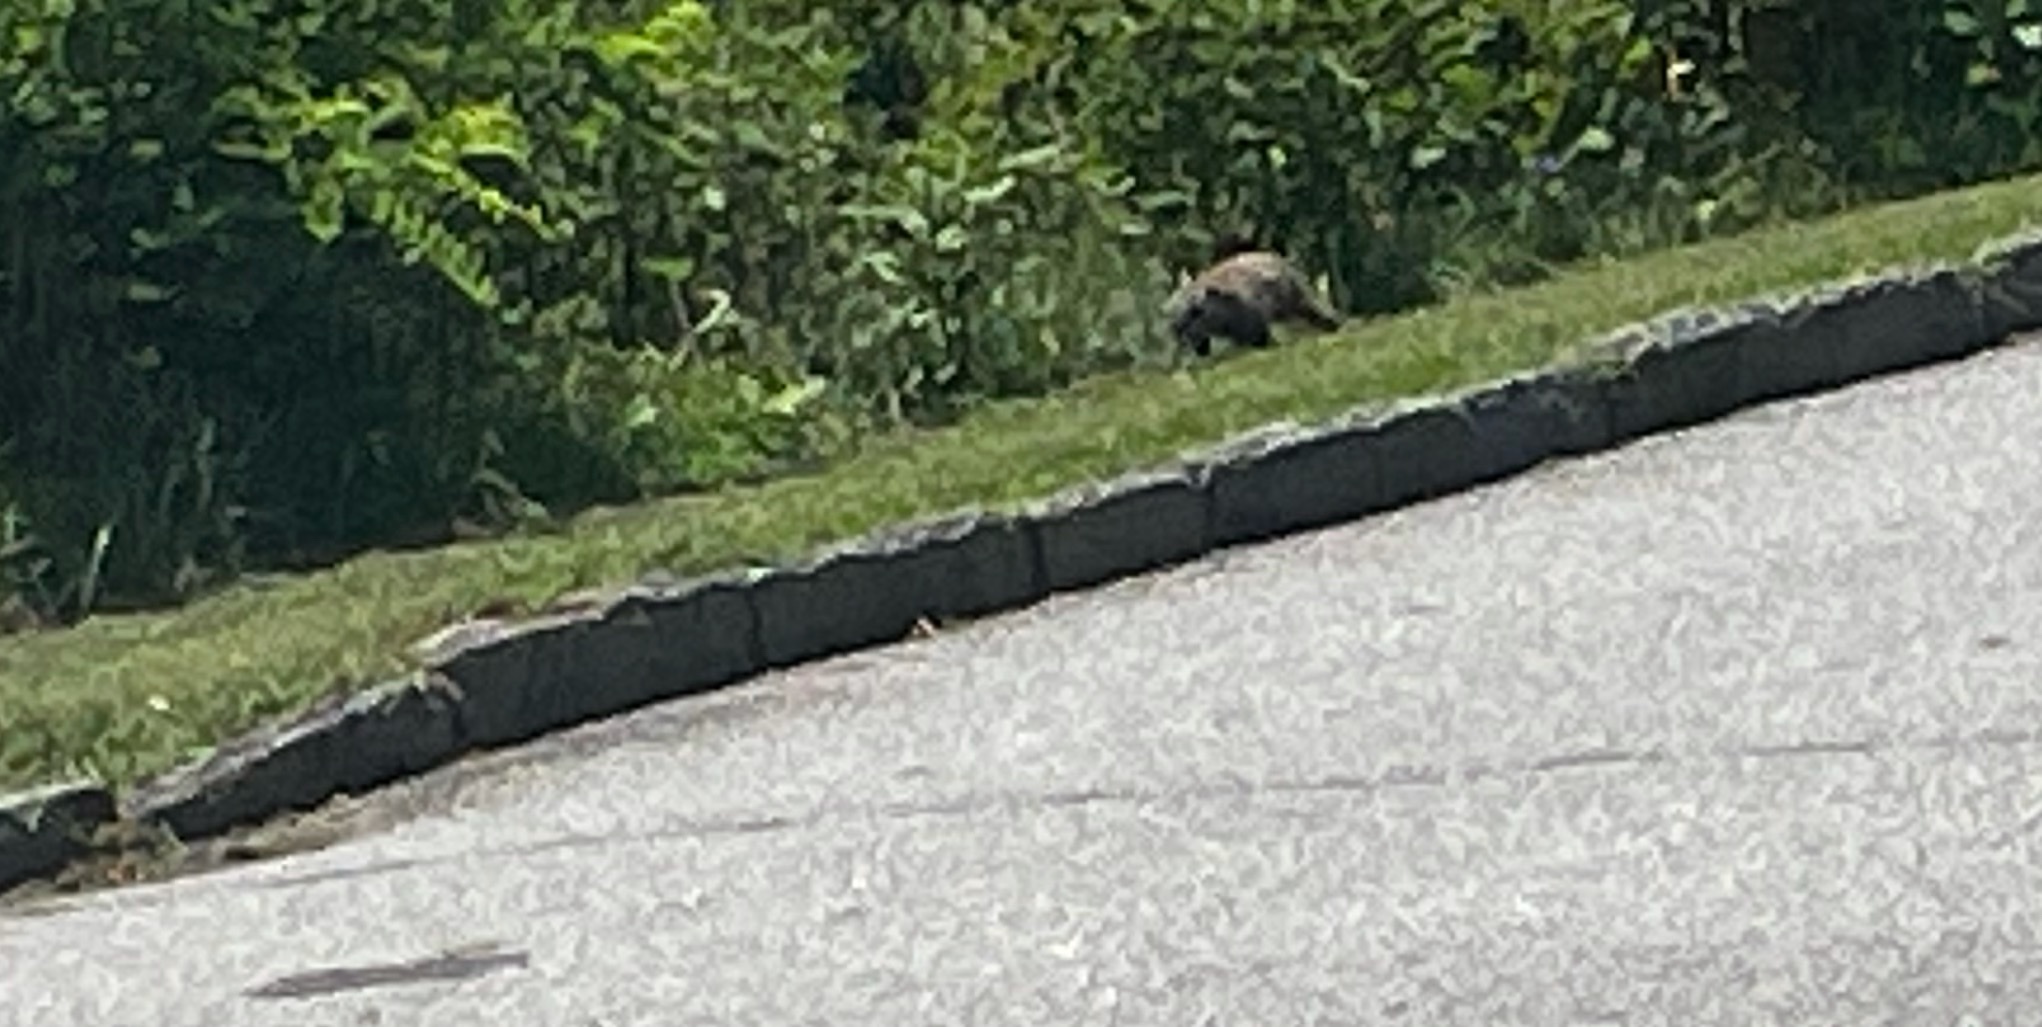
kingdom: Animalia
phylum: Chordata
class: Mammalia
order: Rodentia
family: Sciuridae
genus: Marmota
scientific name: Marmota monax
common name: Groundhog
